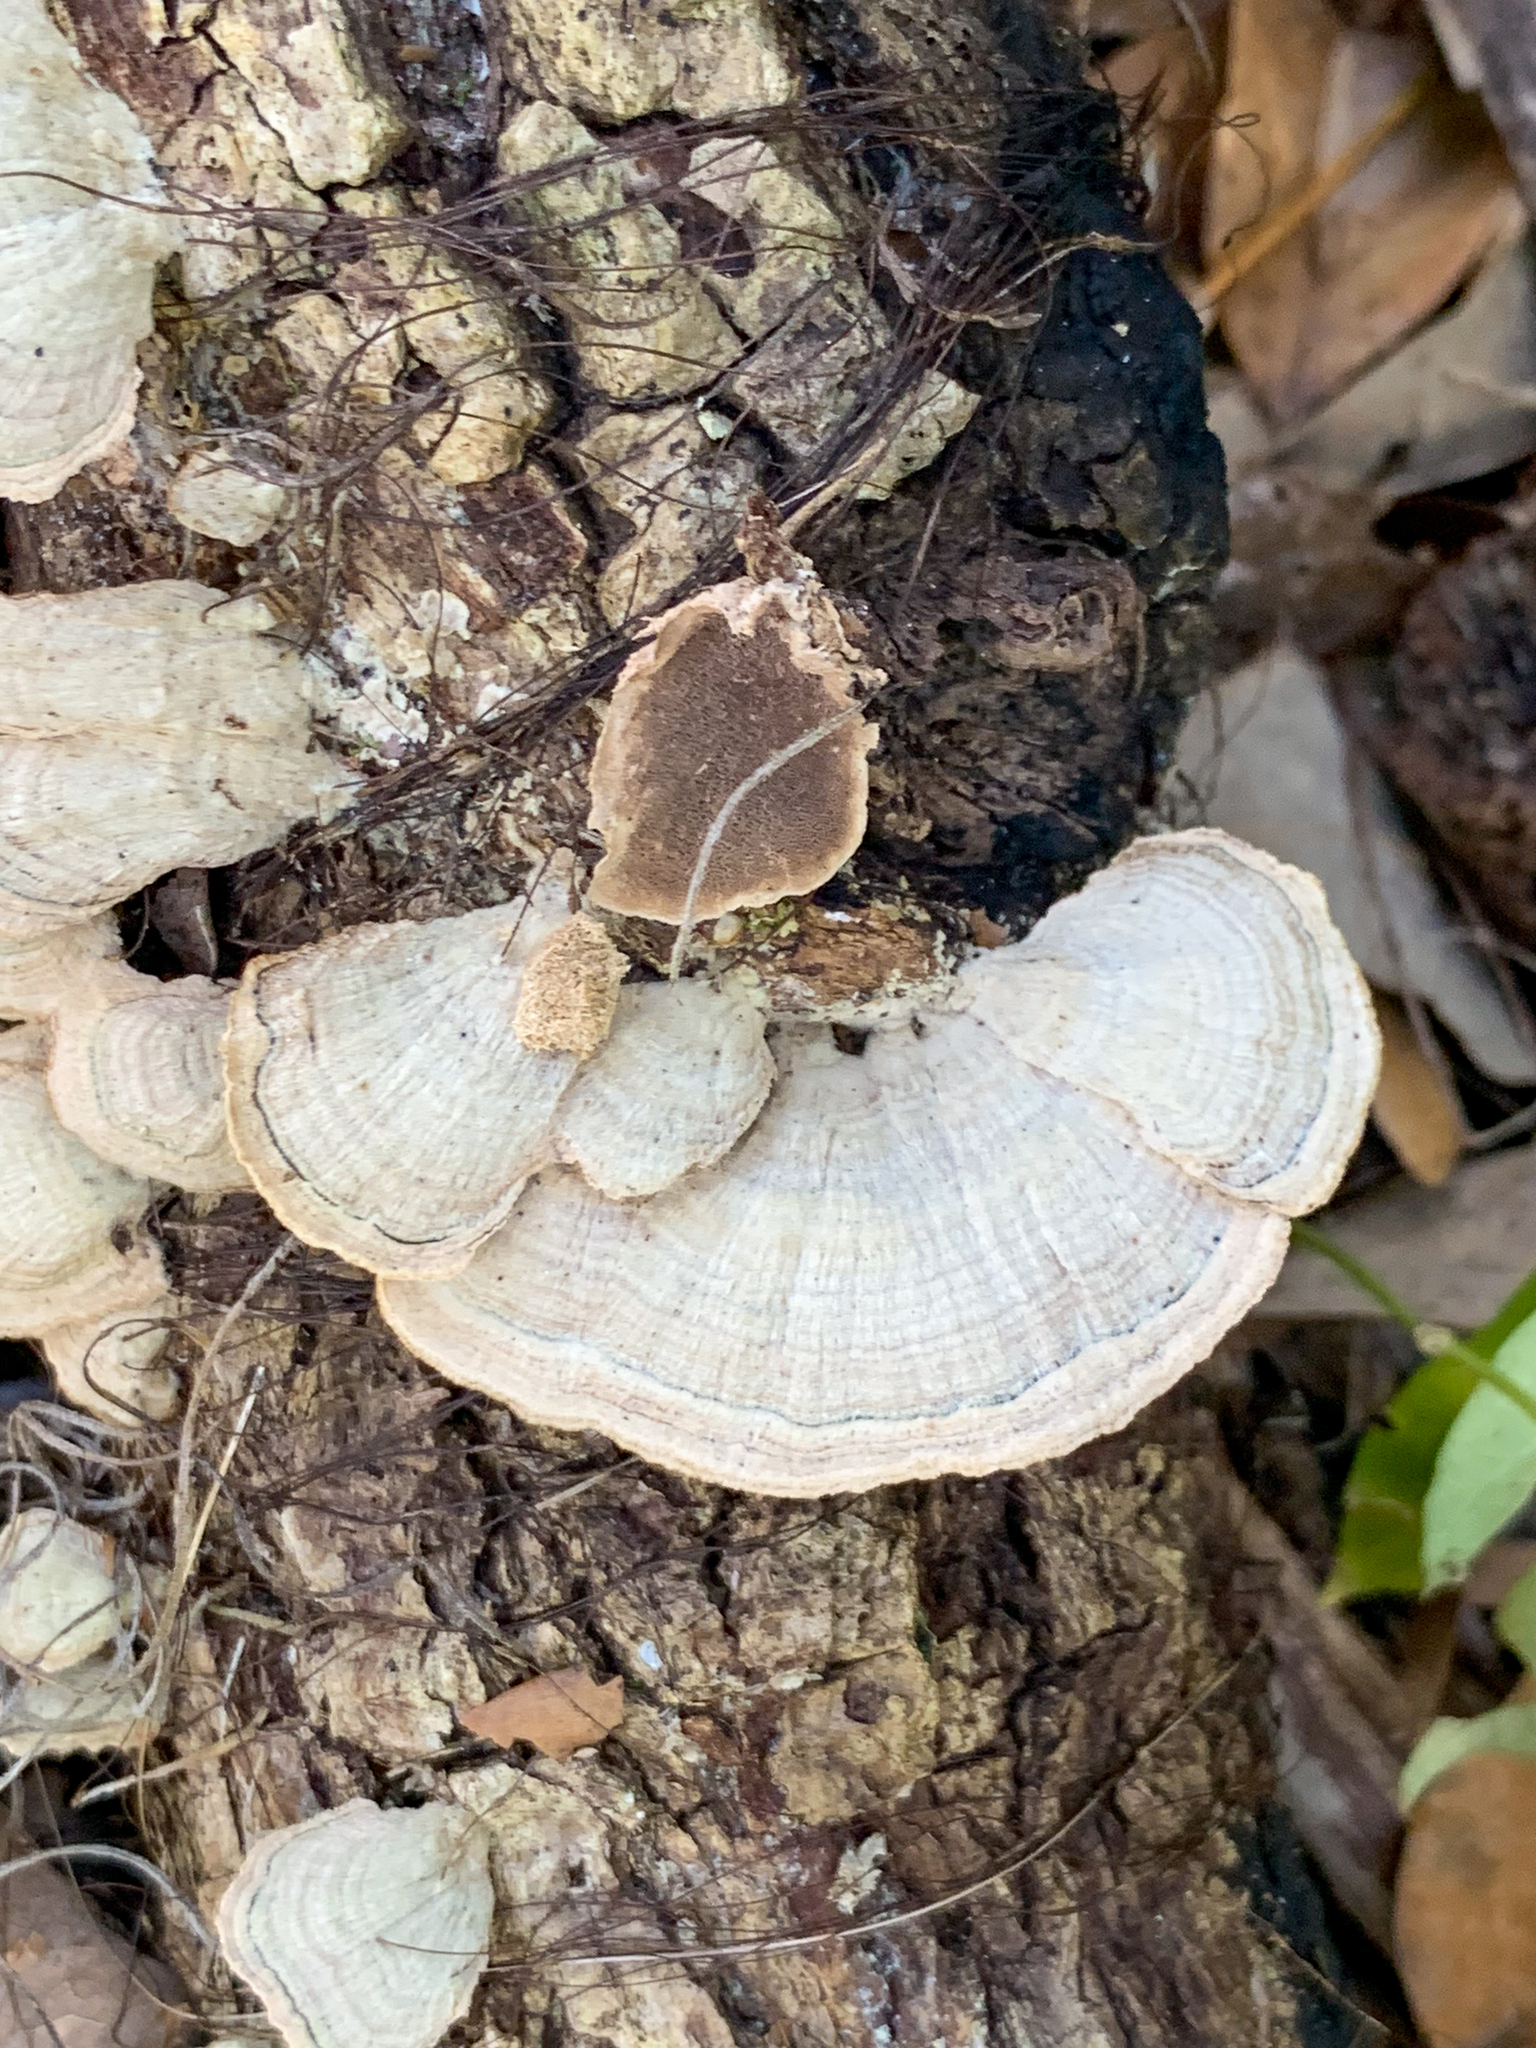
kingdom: Fungi
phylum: Basidiomycota
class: Agaricomycetes
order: Hymenochaetales
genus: Trichaptum
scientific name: Trichaptum sector
